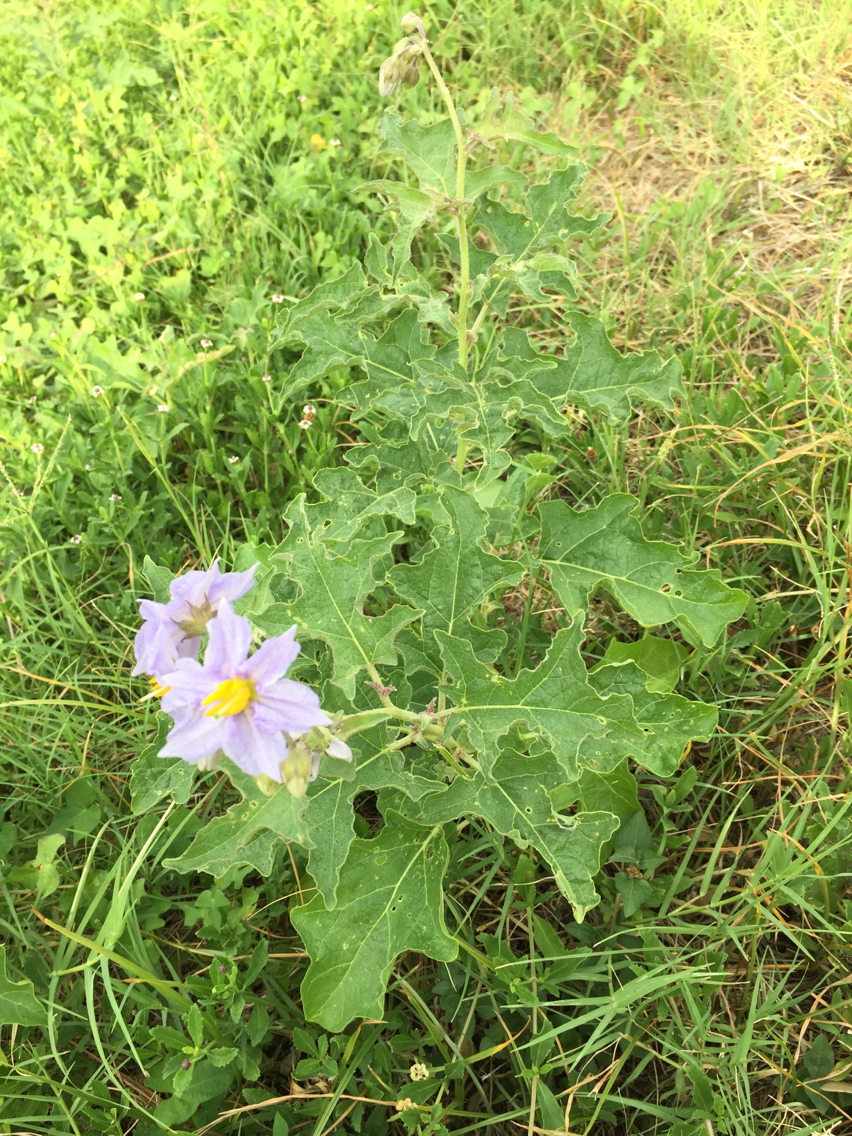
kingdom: Plantae
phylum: Tracheophyta
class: Magnoliopsida
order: Solanales
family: Solanaceae
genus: Solanum
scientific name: Solanum dimidiatum
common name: Carolina horse-nettle
